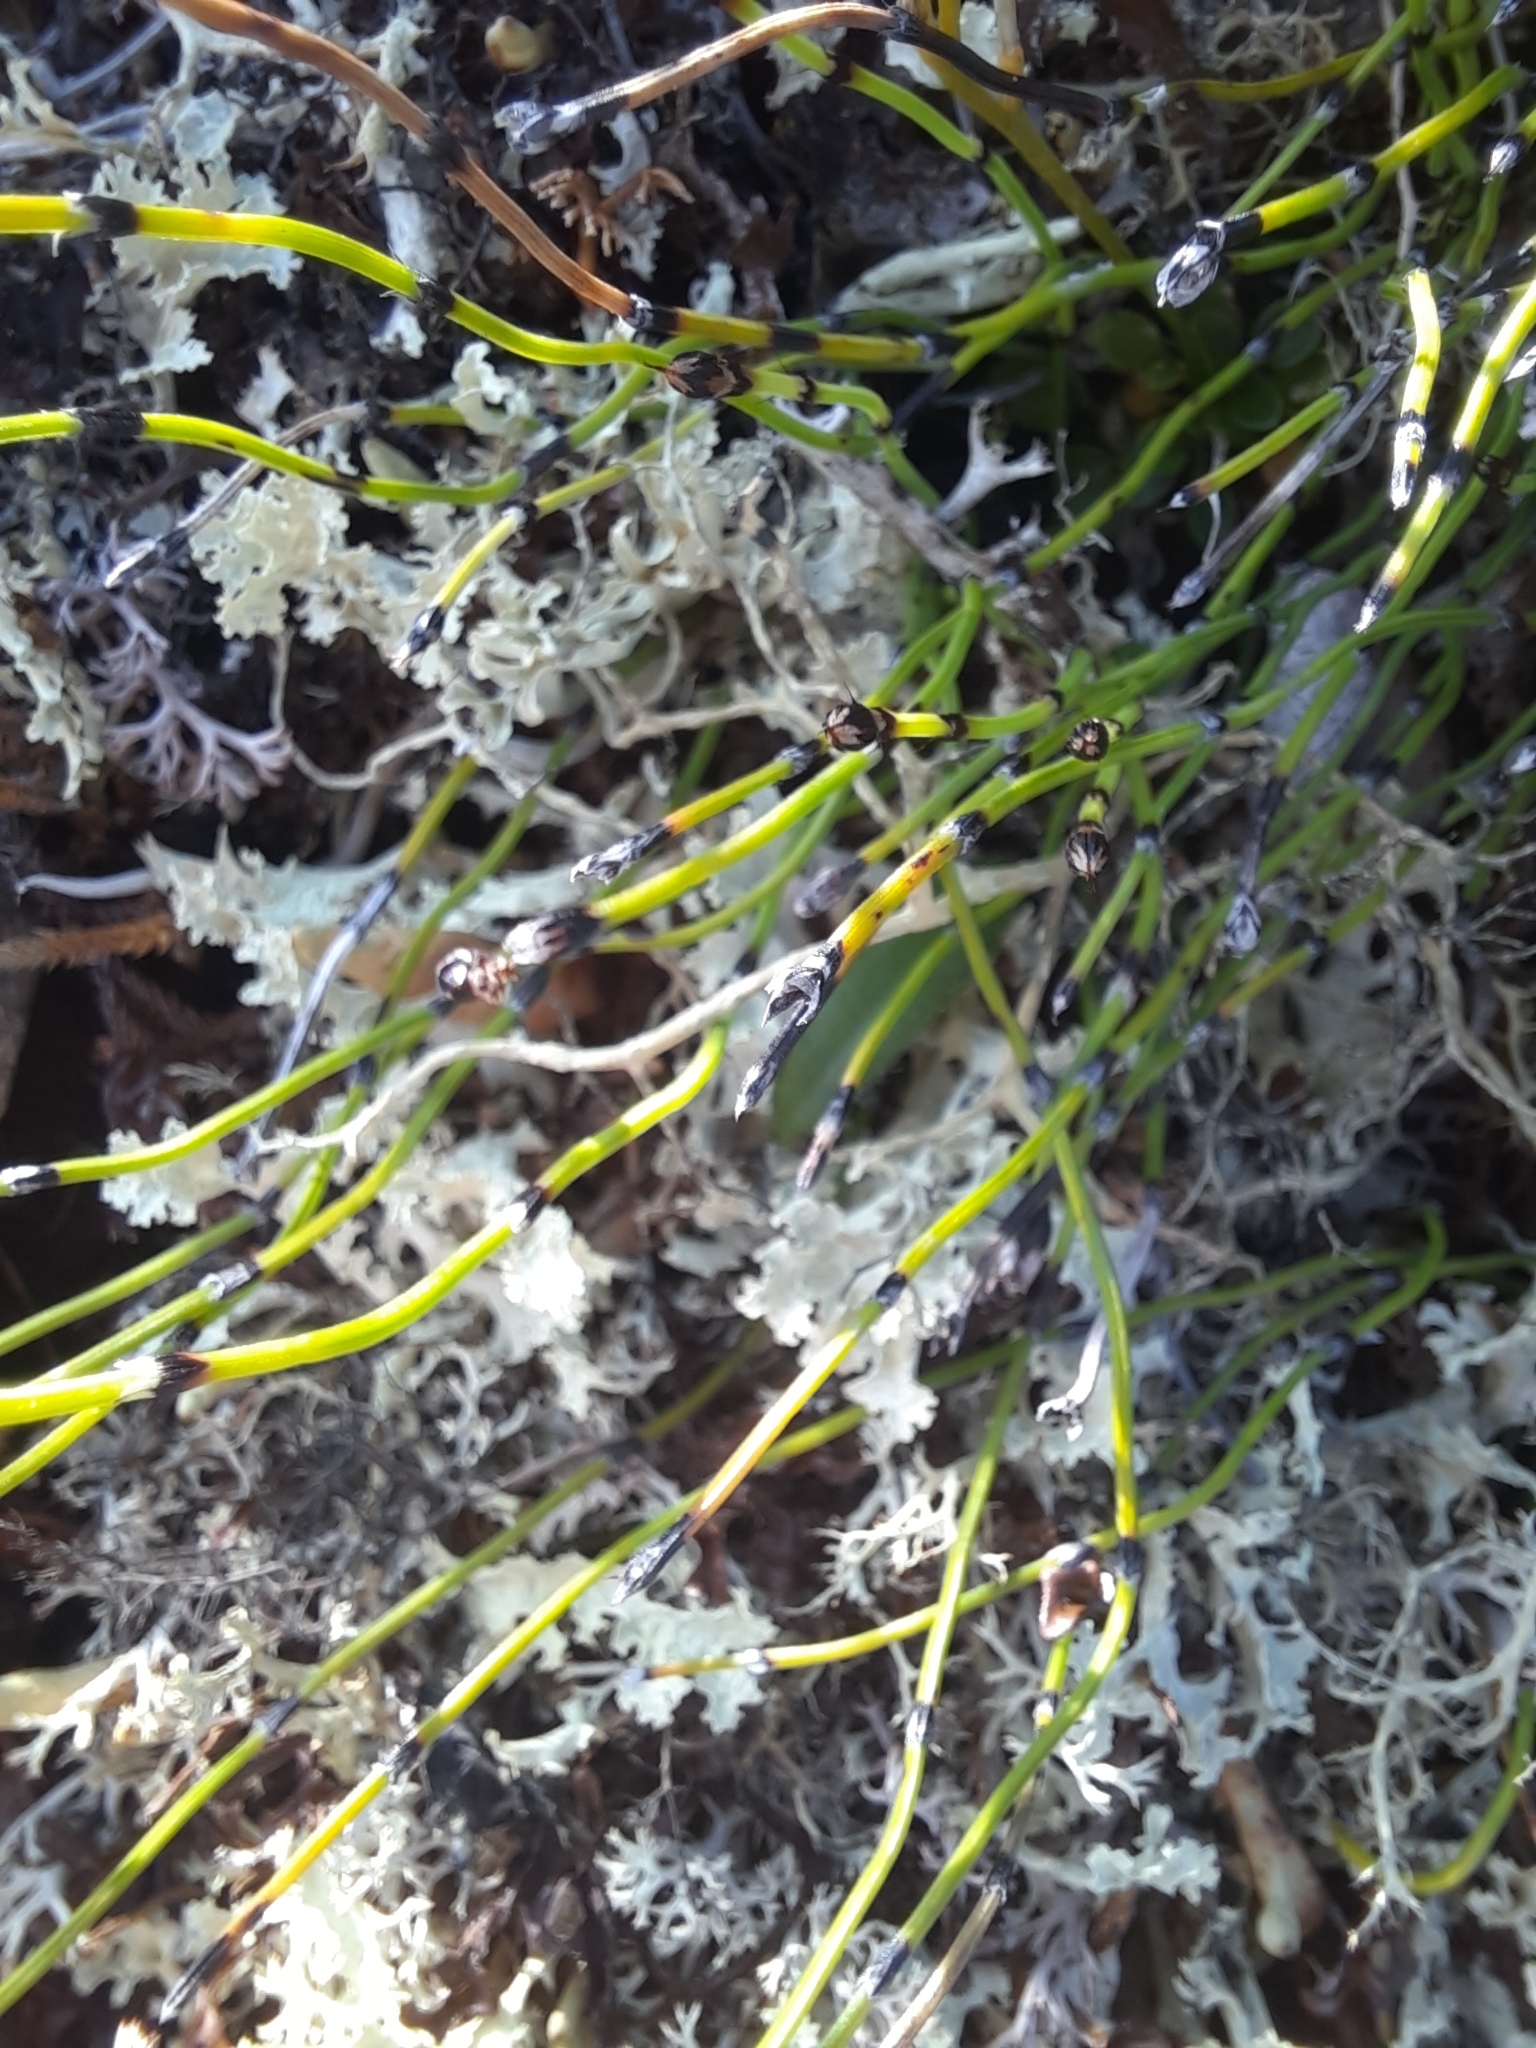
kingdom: Plantae
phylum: Tracheophyta
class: Polypodiopsida
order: Equisetales
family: Equisetaceae
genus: Equisetum
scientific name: Equisetum scirpoides
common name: Delicate horsetail
